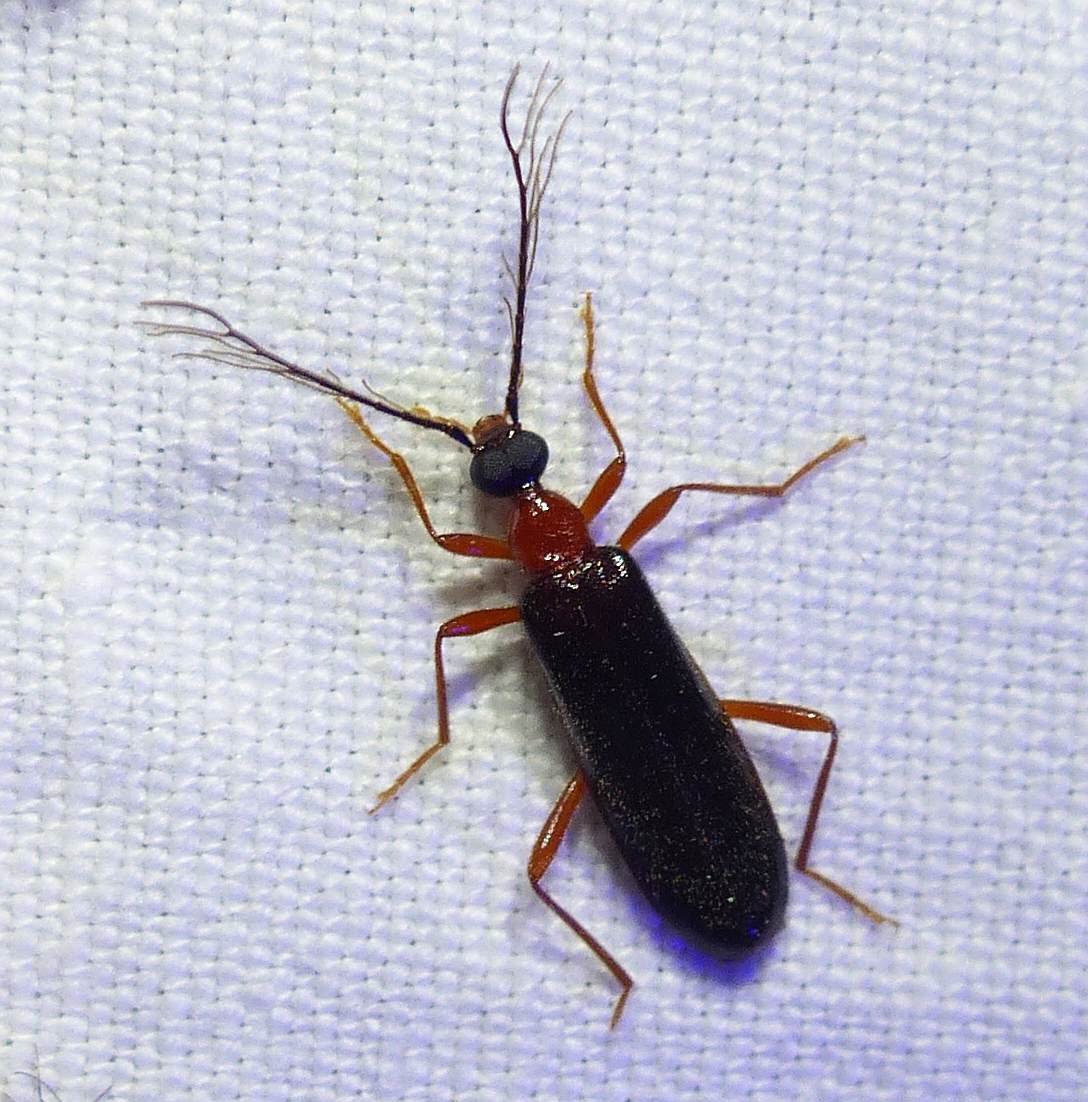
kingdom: Animalia
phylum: Arthropoda
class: Insecta
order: Coleoptera
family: Pyrochroidae
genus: Dendroides
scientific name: Dendroides canadensis
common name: Canada fire-colored beetle
